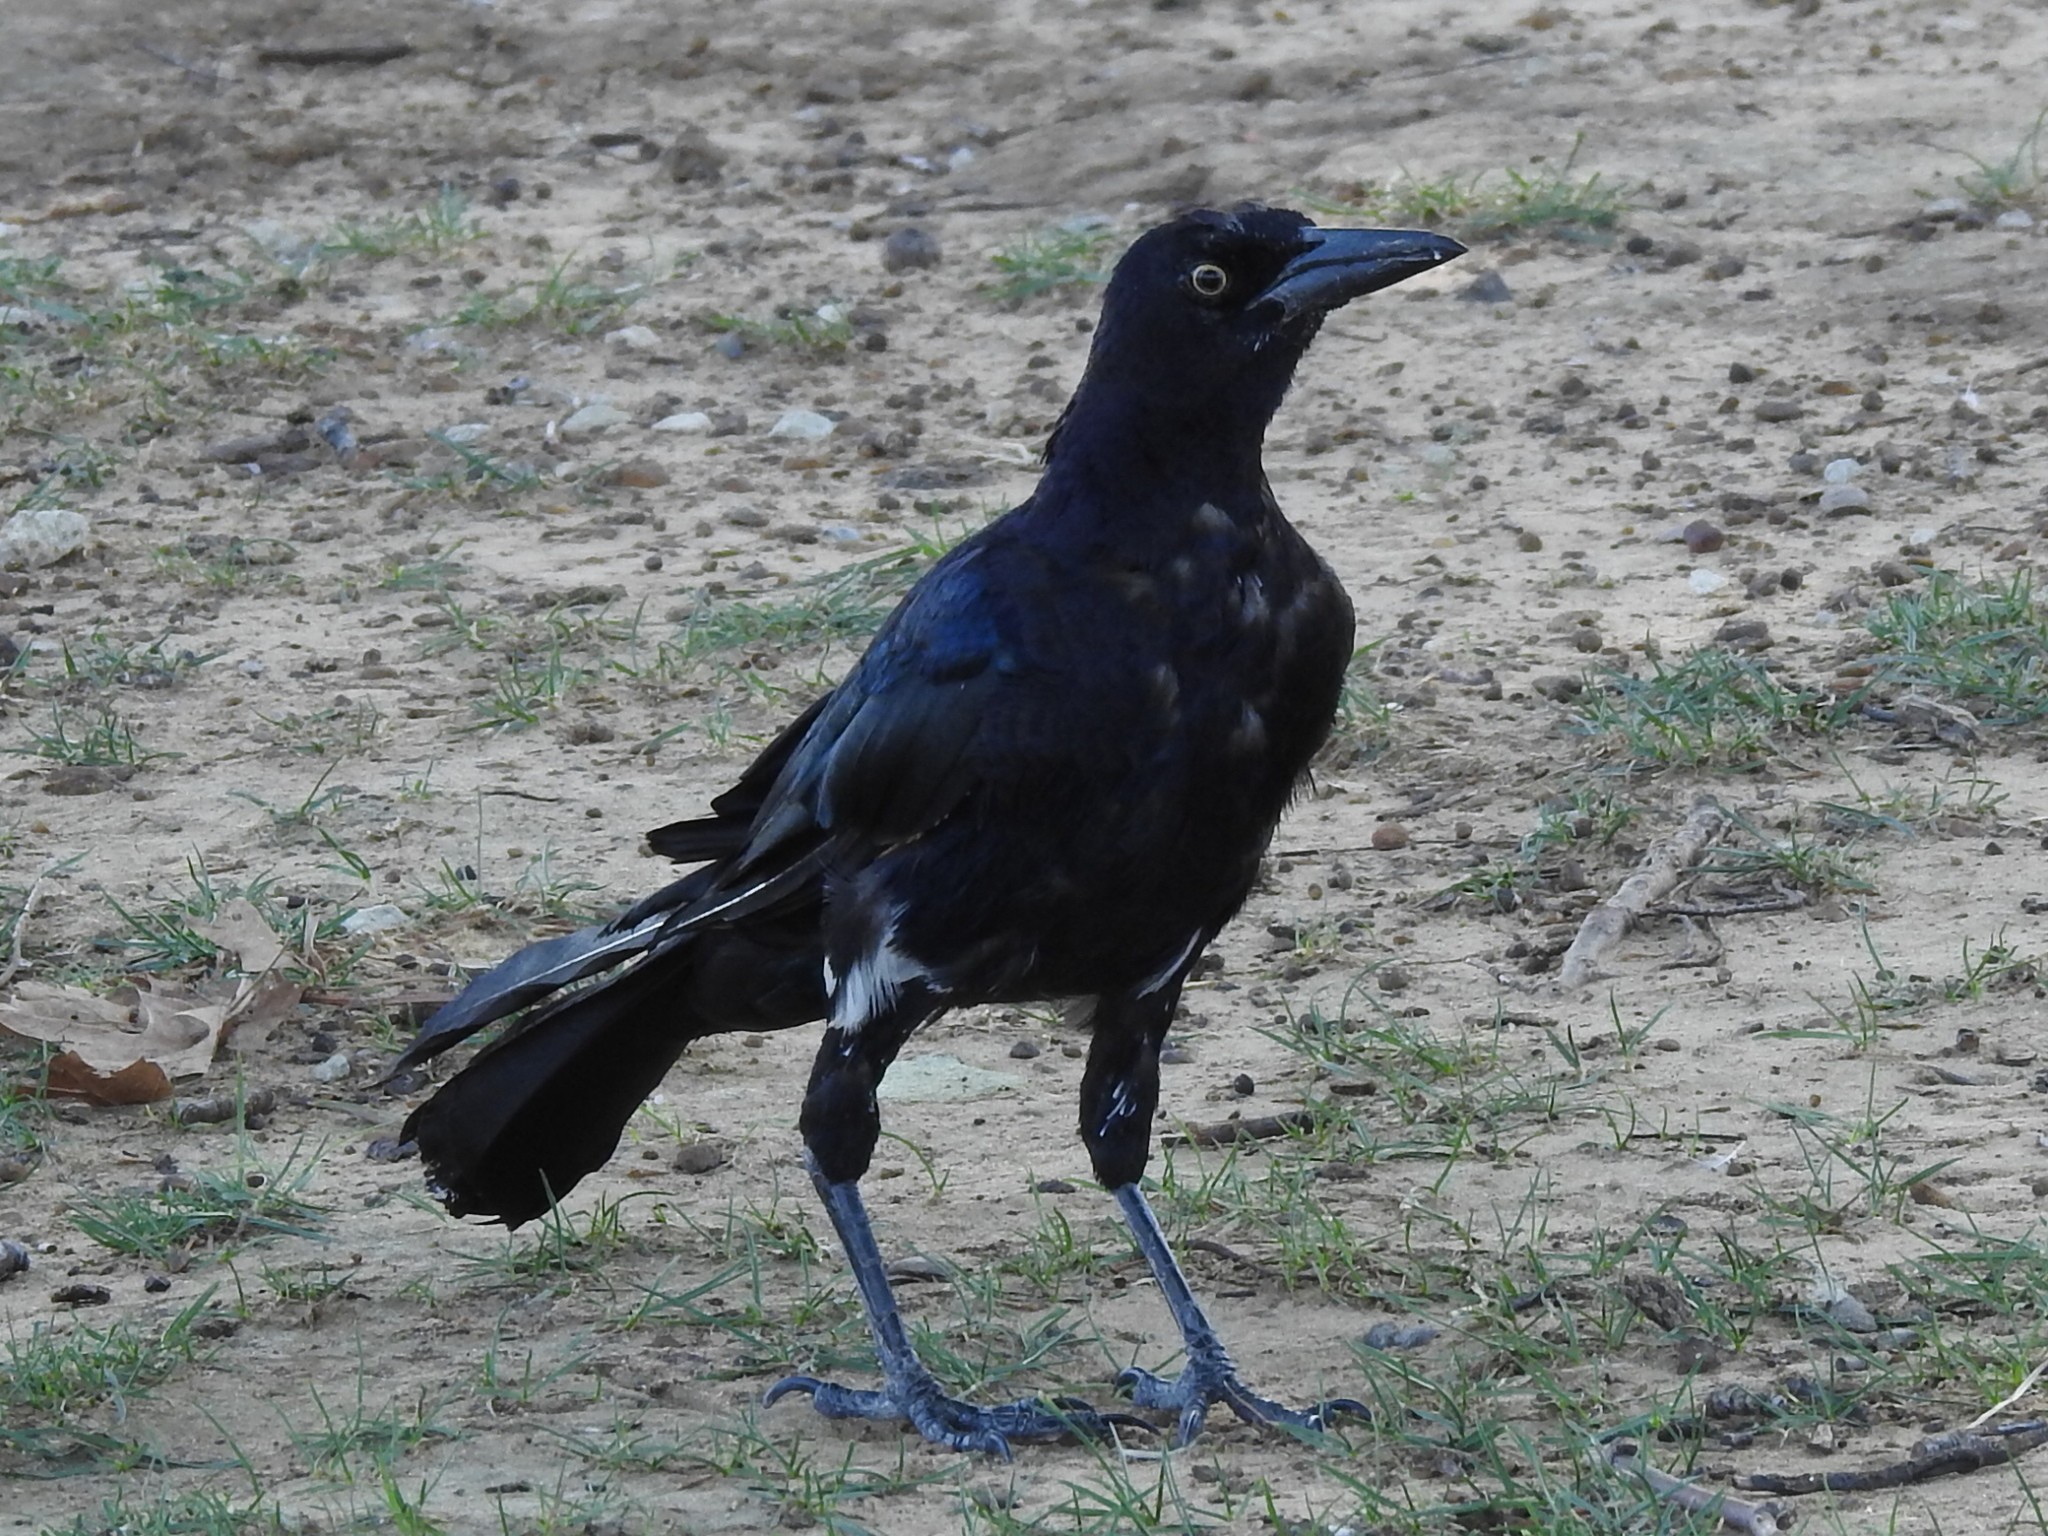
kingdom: Animalia
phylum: Chordata
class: Aves
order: Passeriformes
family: Icteridae
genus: Quiscalus
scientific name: Quiscalus mexicanus
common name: Great-tailed grackle
